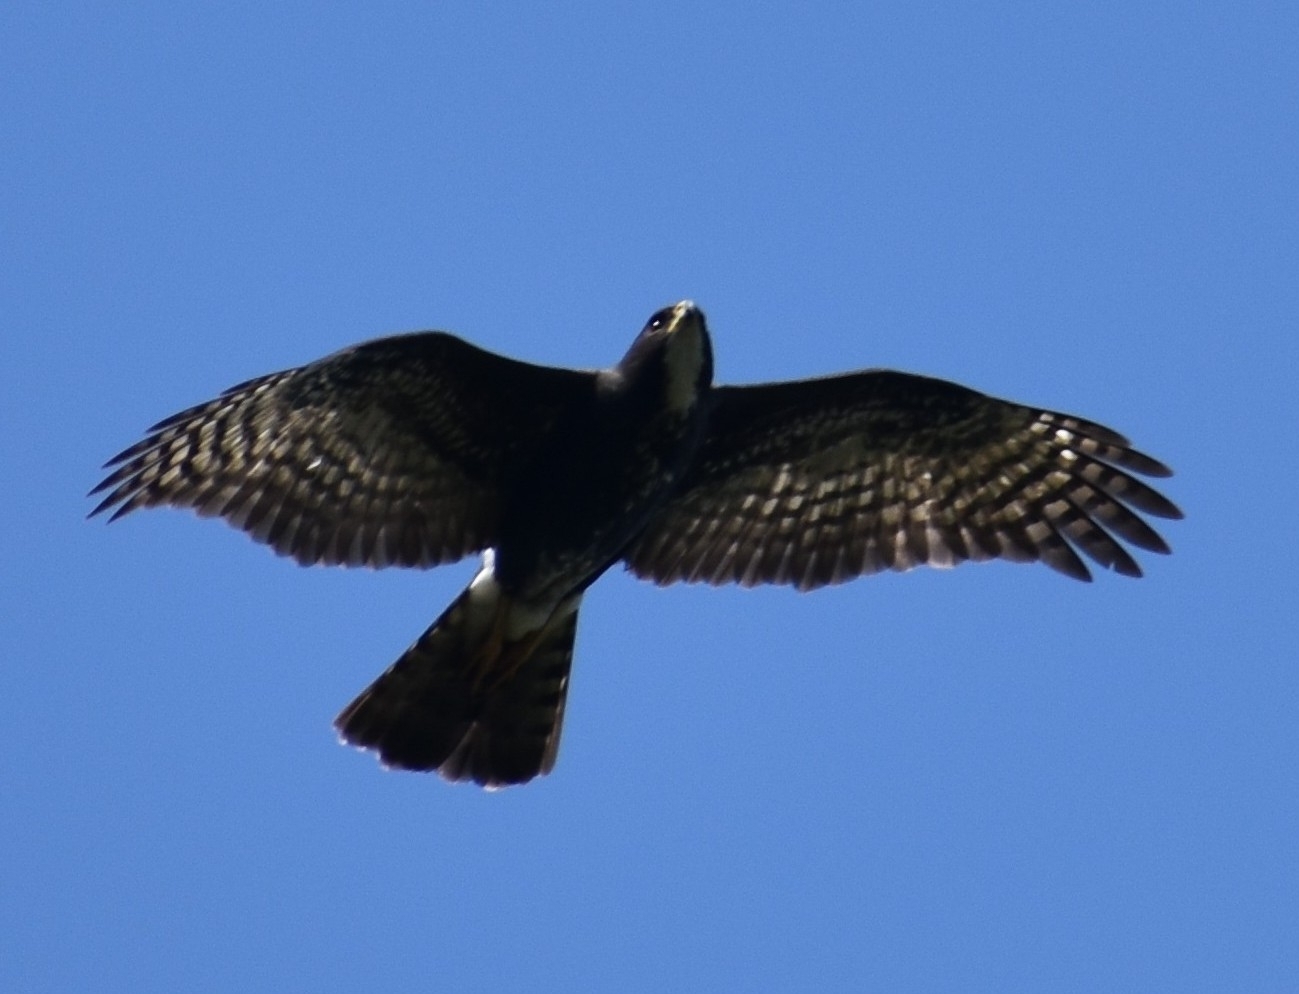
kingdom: Animalia
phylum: Chordata
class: Aves
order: Accipitriformes
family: Accipitridae
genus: Accipiter
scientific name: Accipiter melanoleucus
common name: Black sparrowhawk
